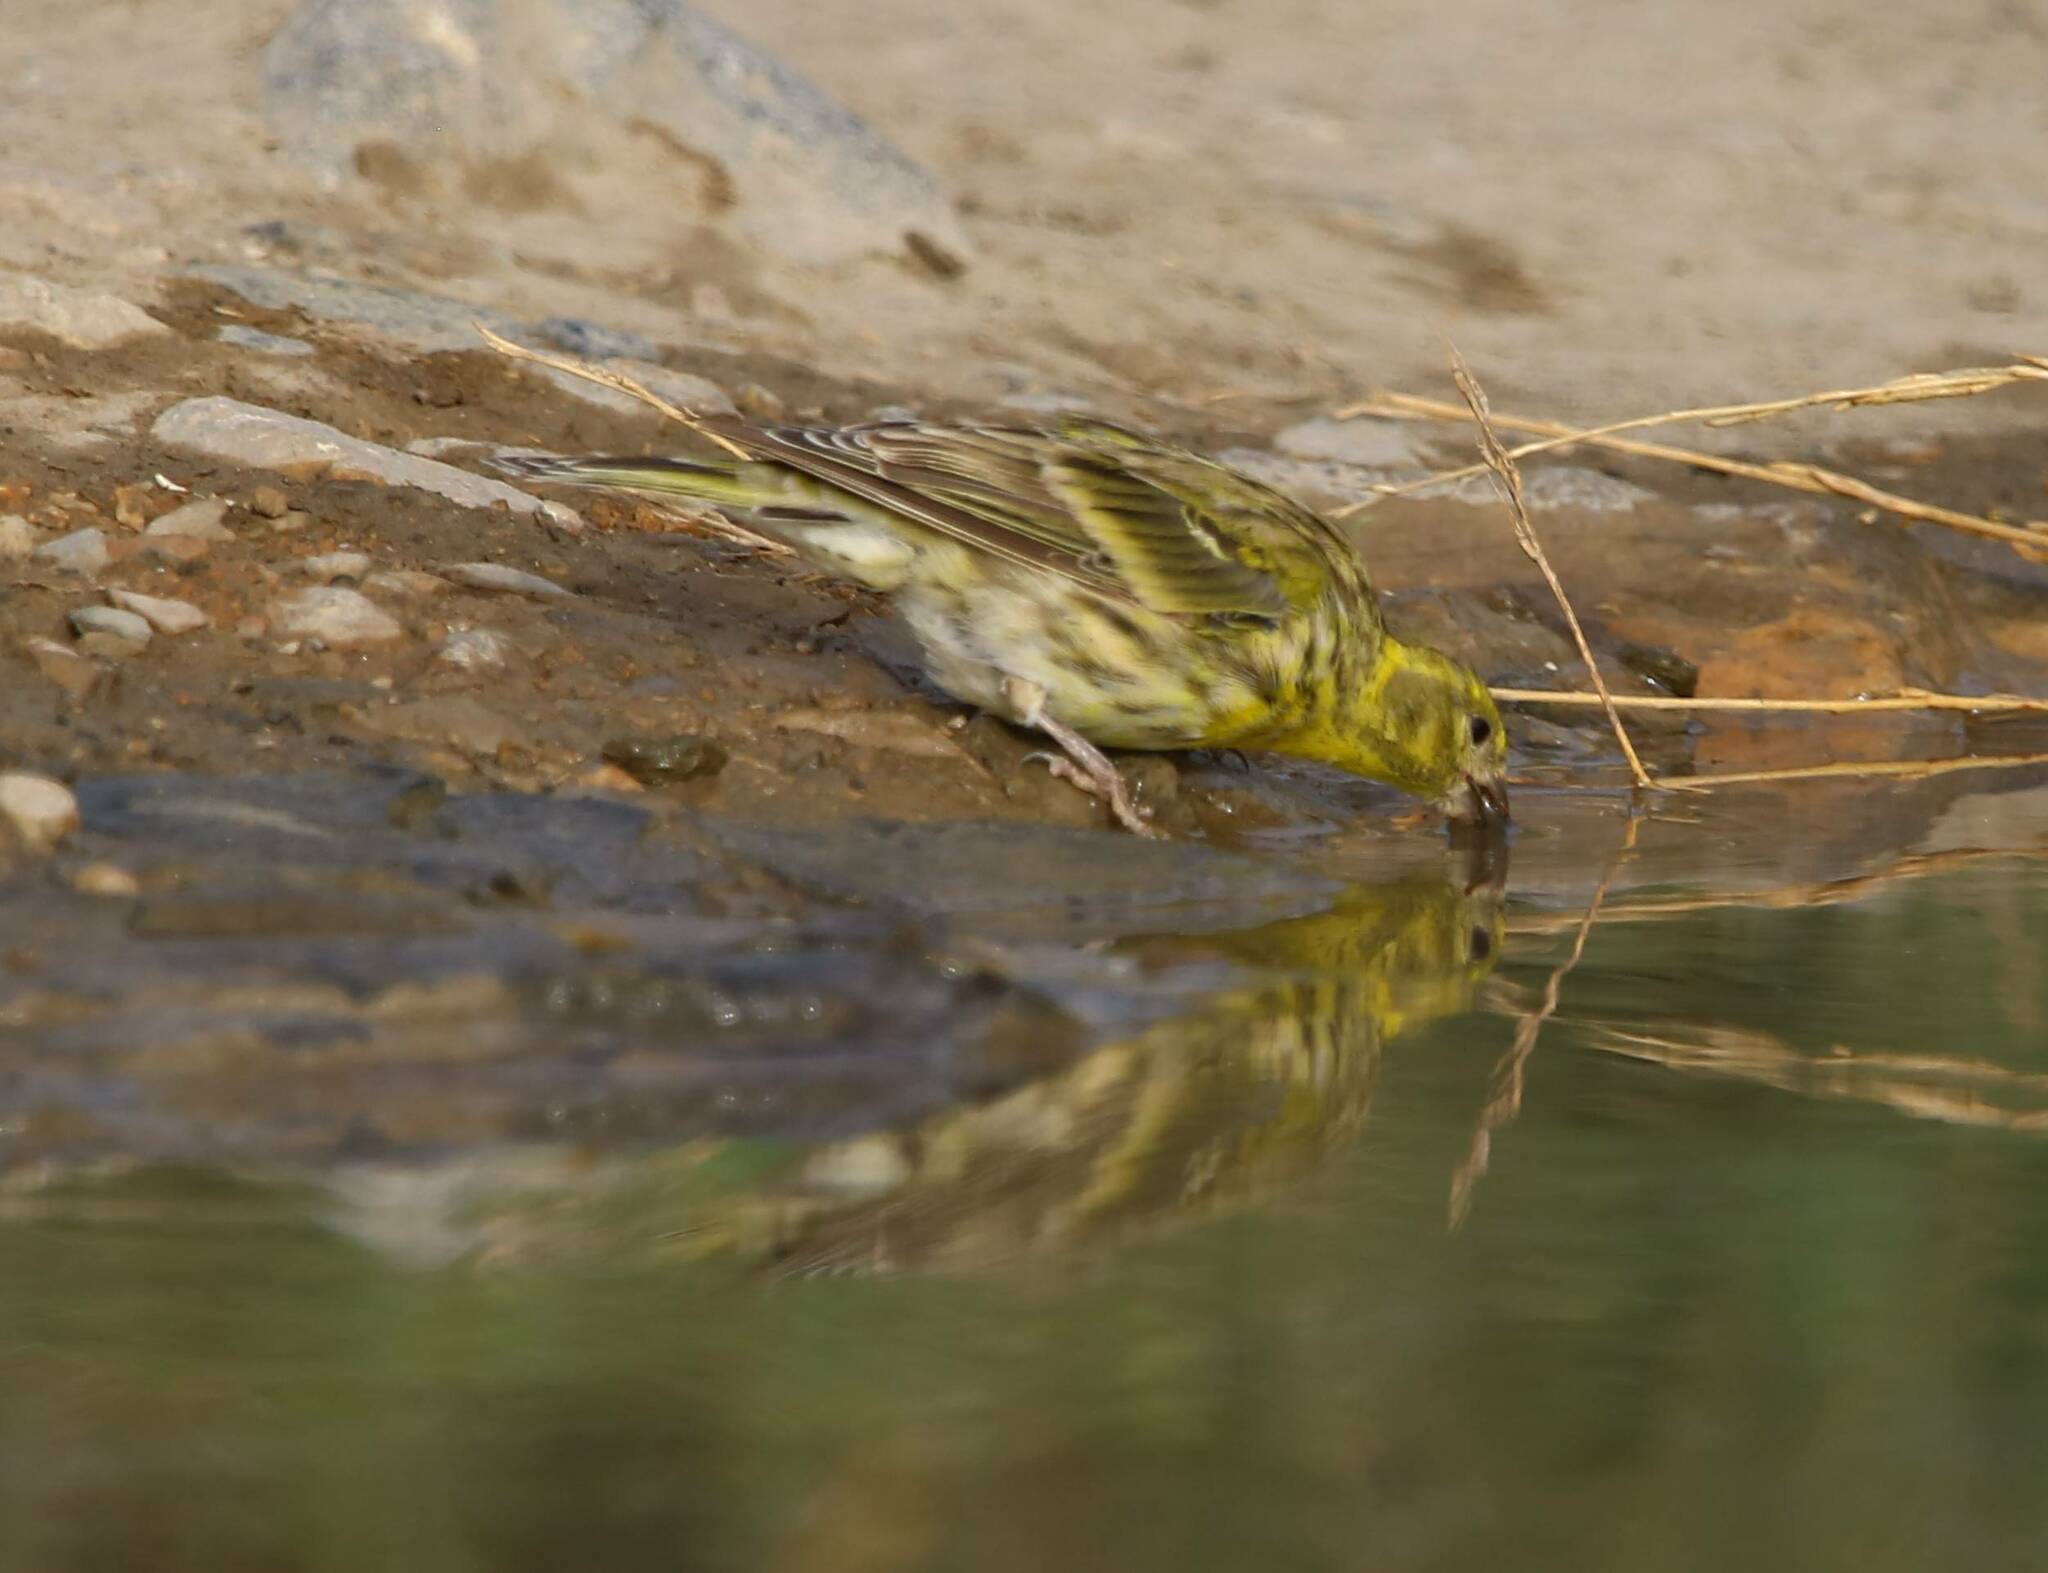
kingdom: Animalia
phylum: Chordata
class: Aves
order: Passeriformes
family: Fringillidae
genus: Serinus
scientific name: Serinus serinus
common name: European serin
